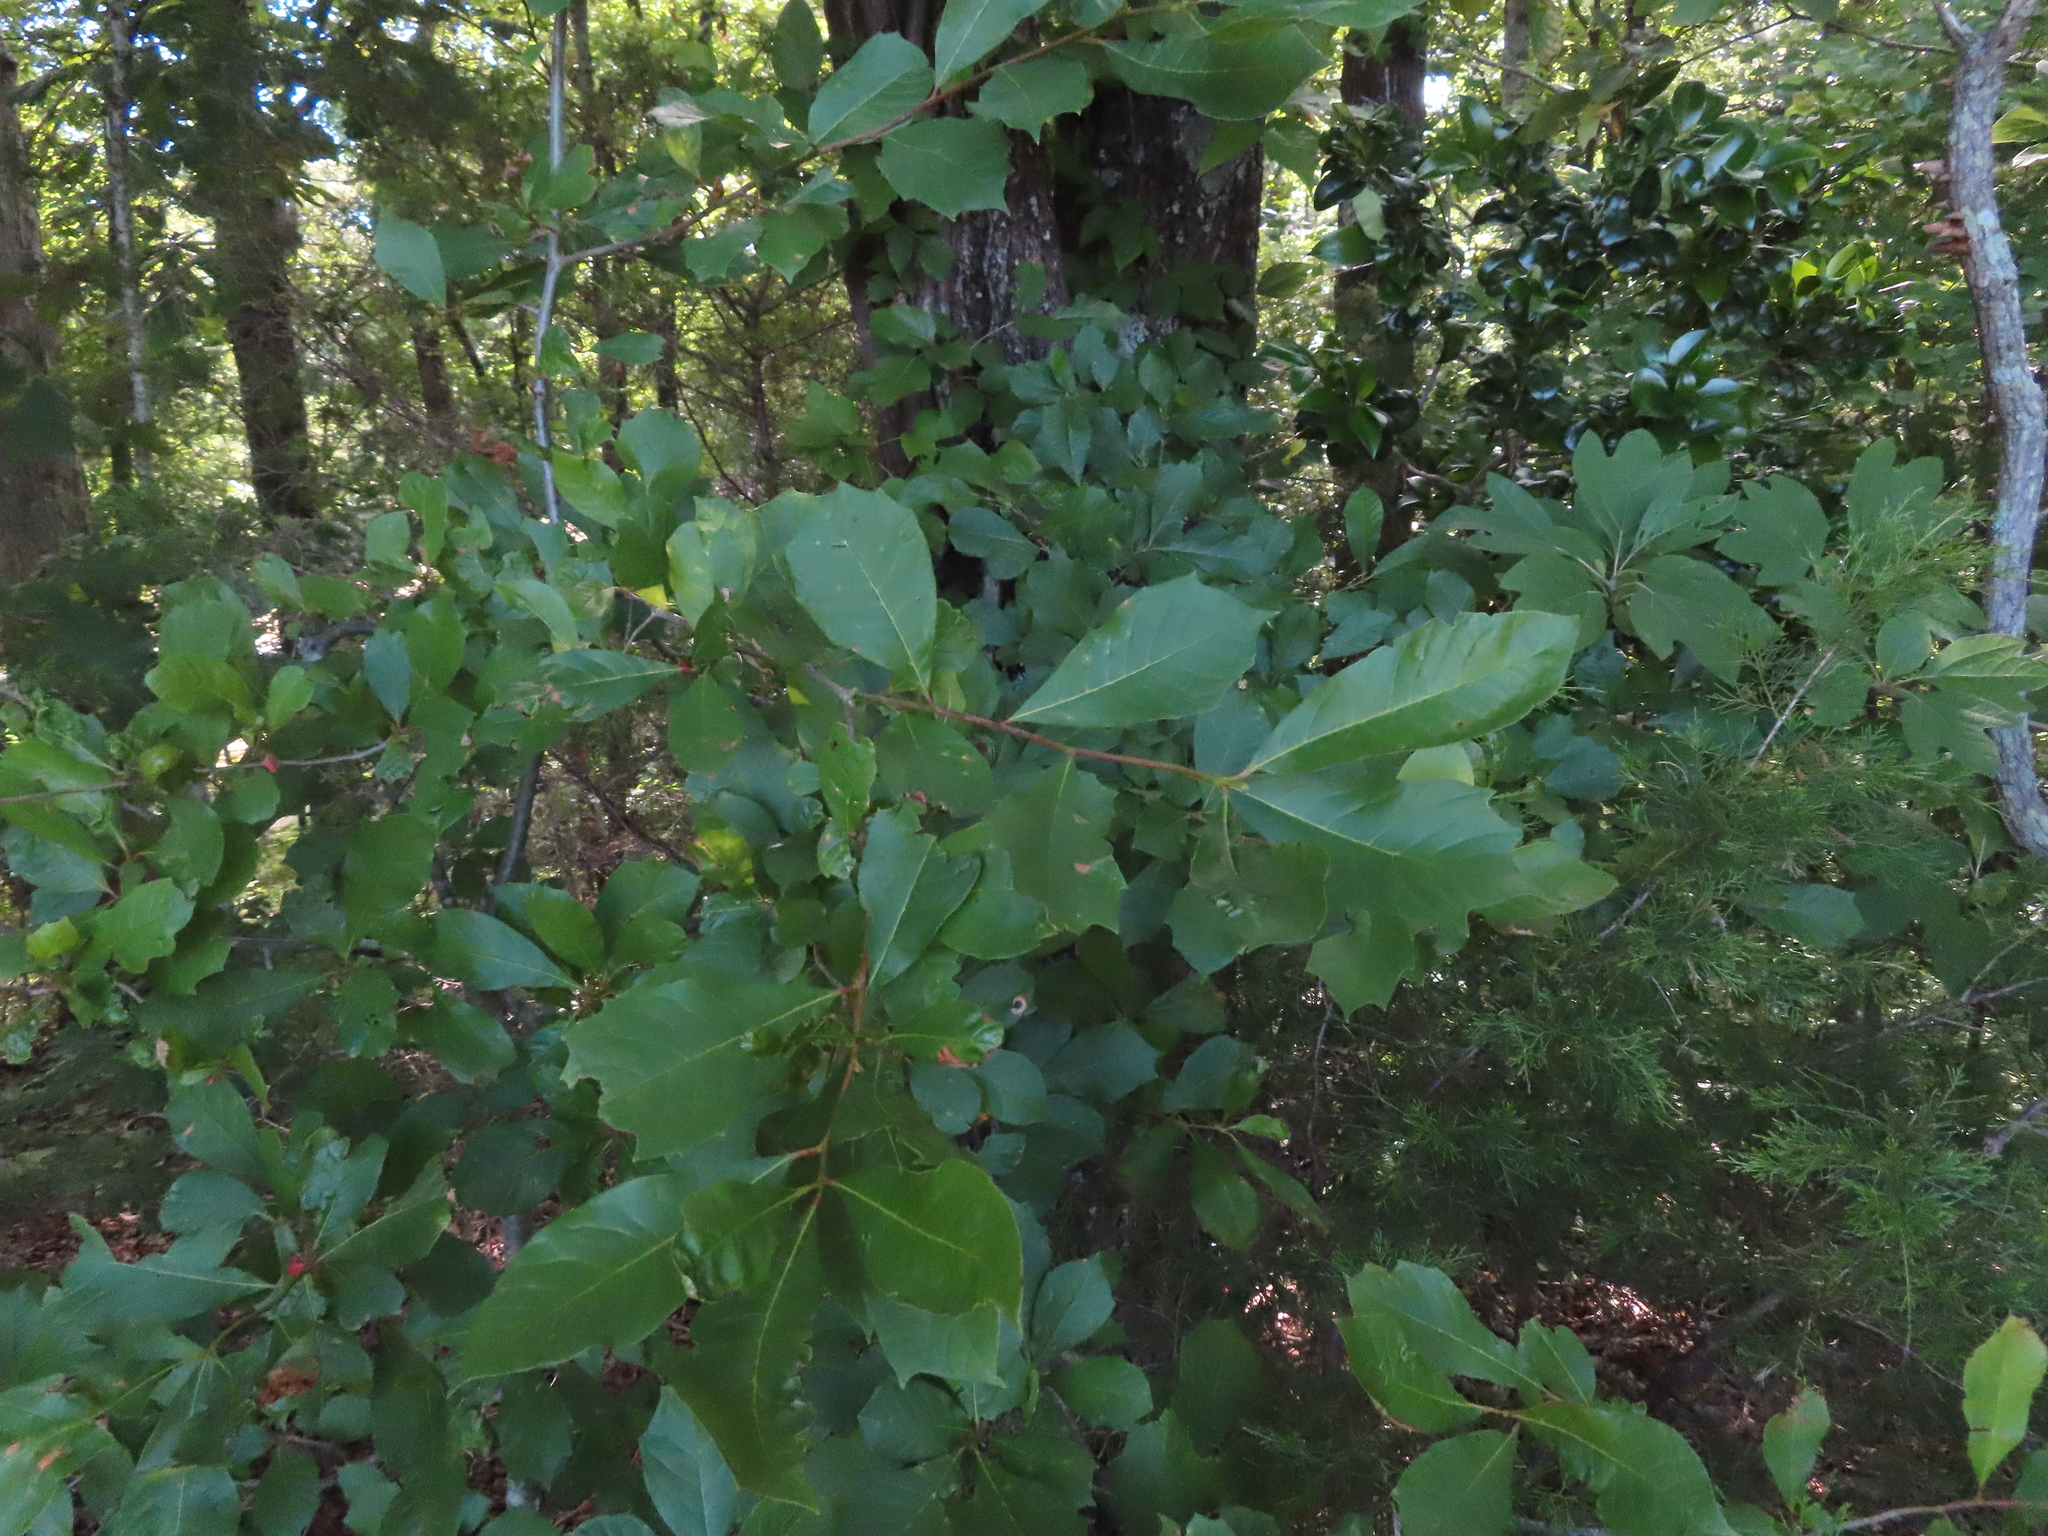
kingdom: Plantae
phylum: Tracheophyta
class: Magnoliopsida
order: Cornales
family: Nyssaceae
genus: Nyssa
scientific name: Nyssa sylvatica
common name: Black tupelo
